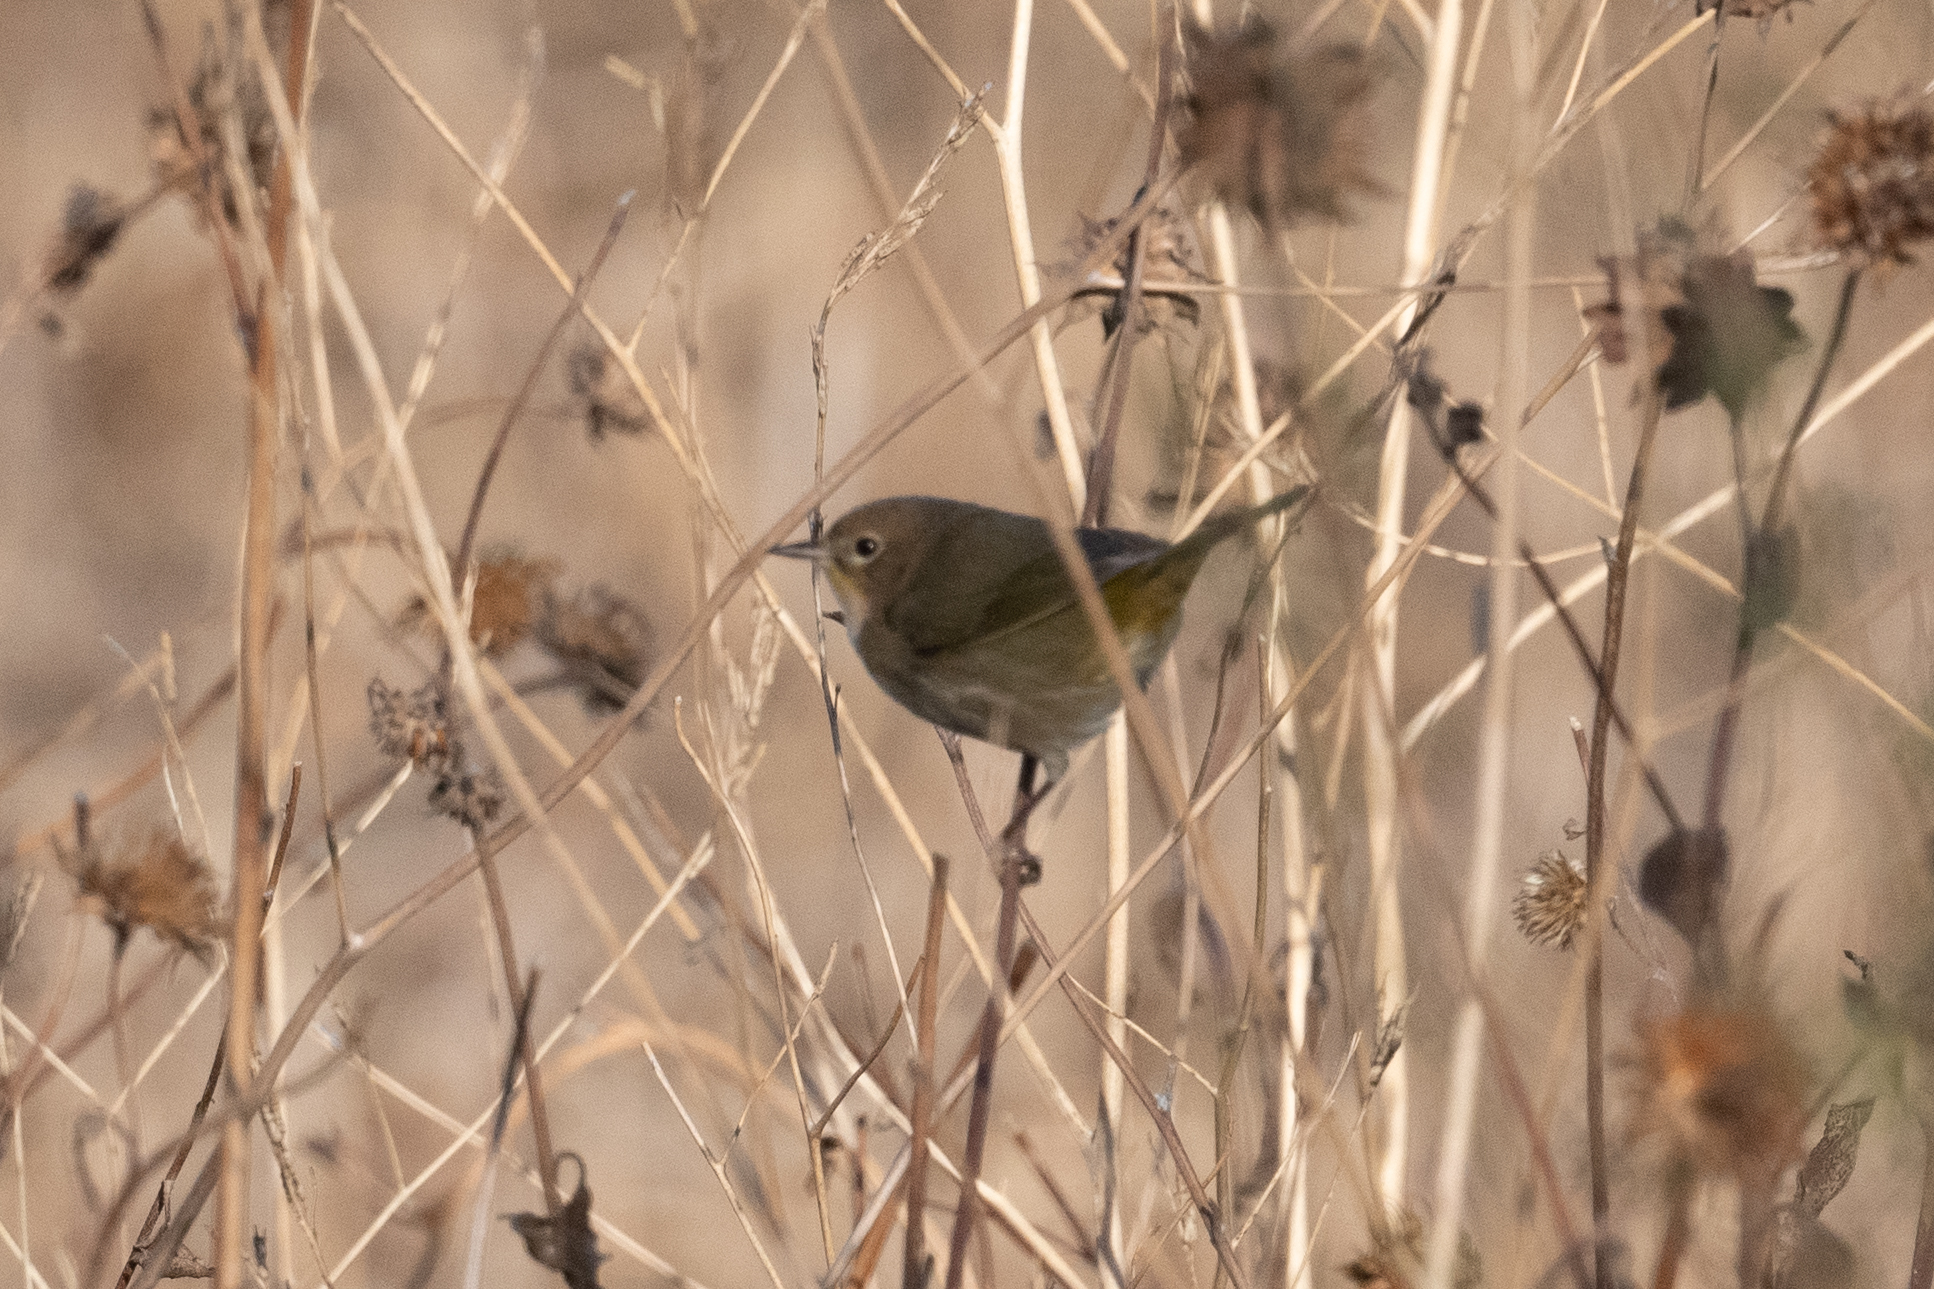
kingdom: Animalia
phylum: Chordata
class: Aves
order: Passeriformes
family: Parulidae
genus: Geothlypis
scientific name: Geothlypis trichas
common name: Common yellowthroat
